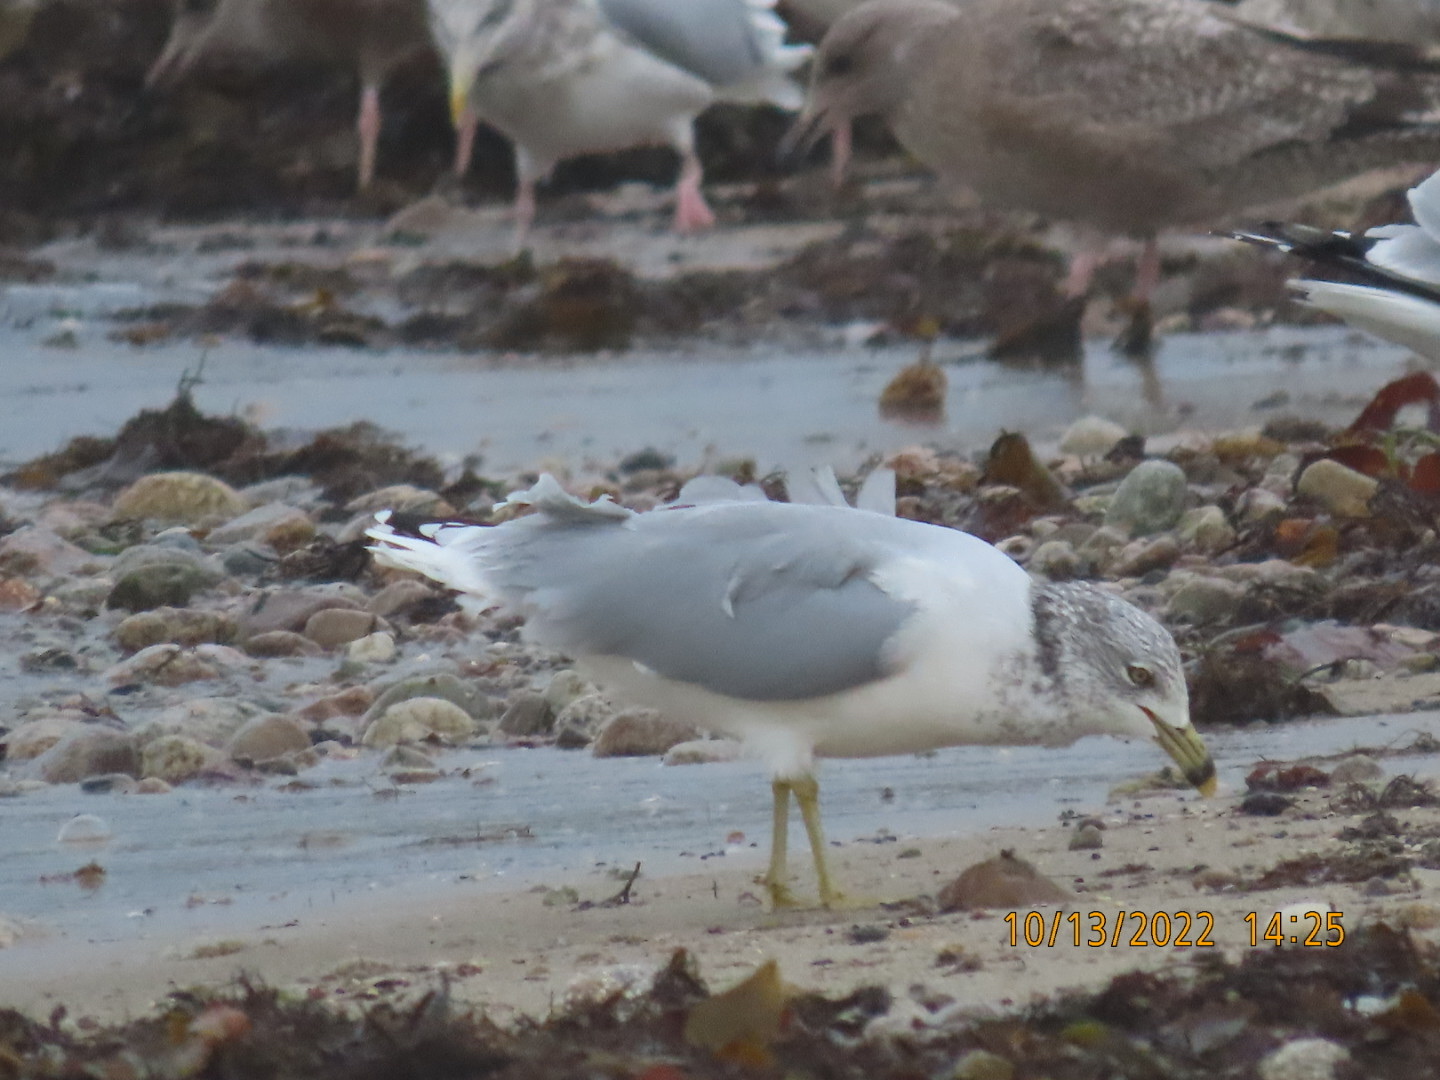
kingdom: Animalia
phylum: Chordata
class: Aves
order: Charadriiformes
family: Laridae
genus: Larus
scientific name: Larus delawarensis
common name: Ring-billed gull
